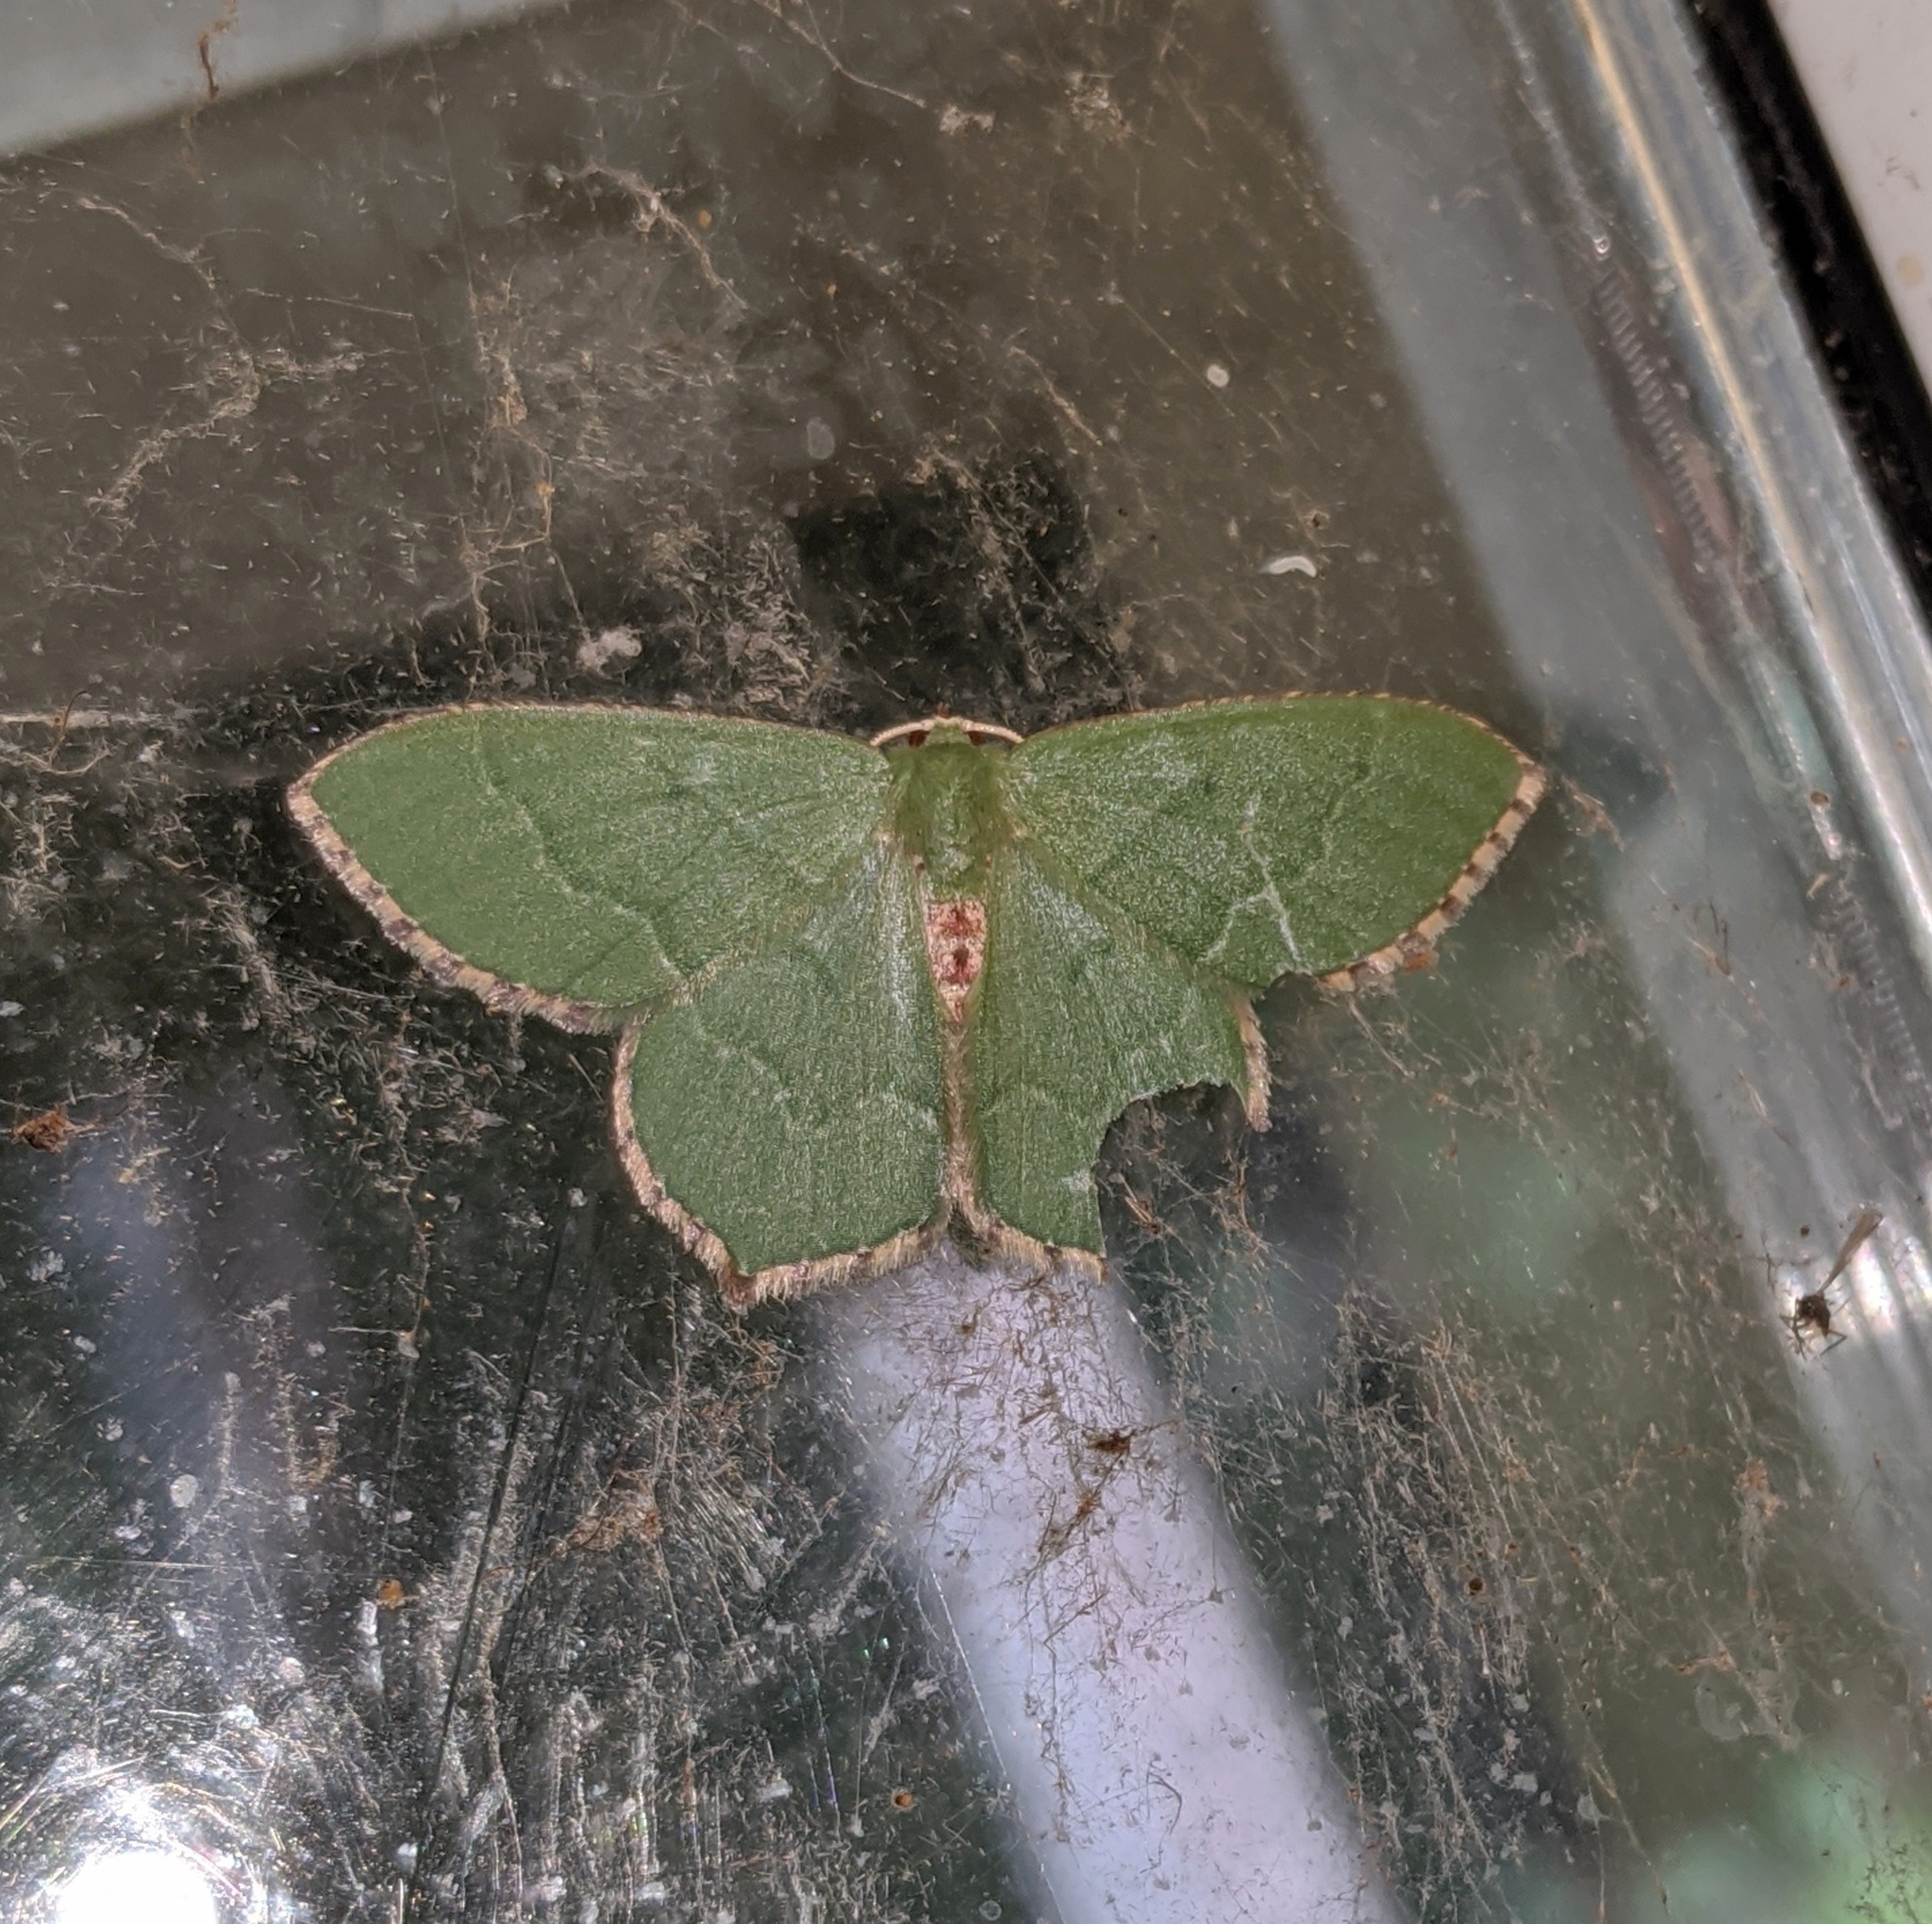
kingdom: Animalia
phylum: Arthropoda
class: Insecta
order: Lepidoptera
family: Geometridae
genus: Hemithea
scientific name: Hemithea aestivaria
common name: Common emerald
